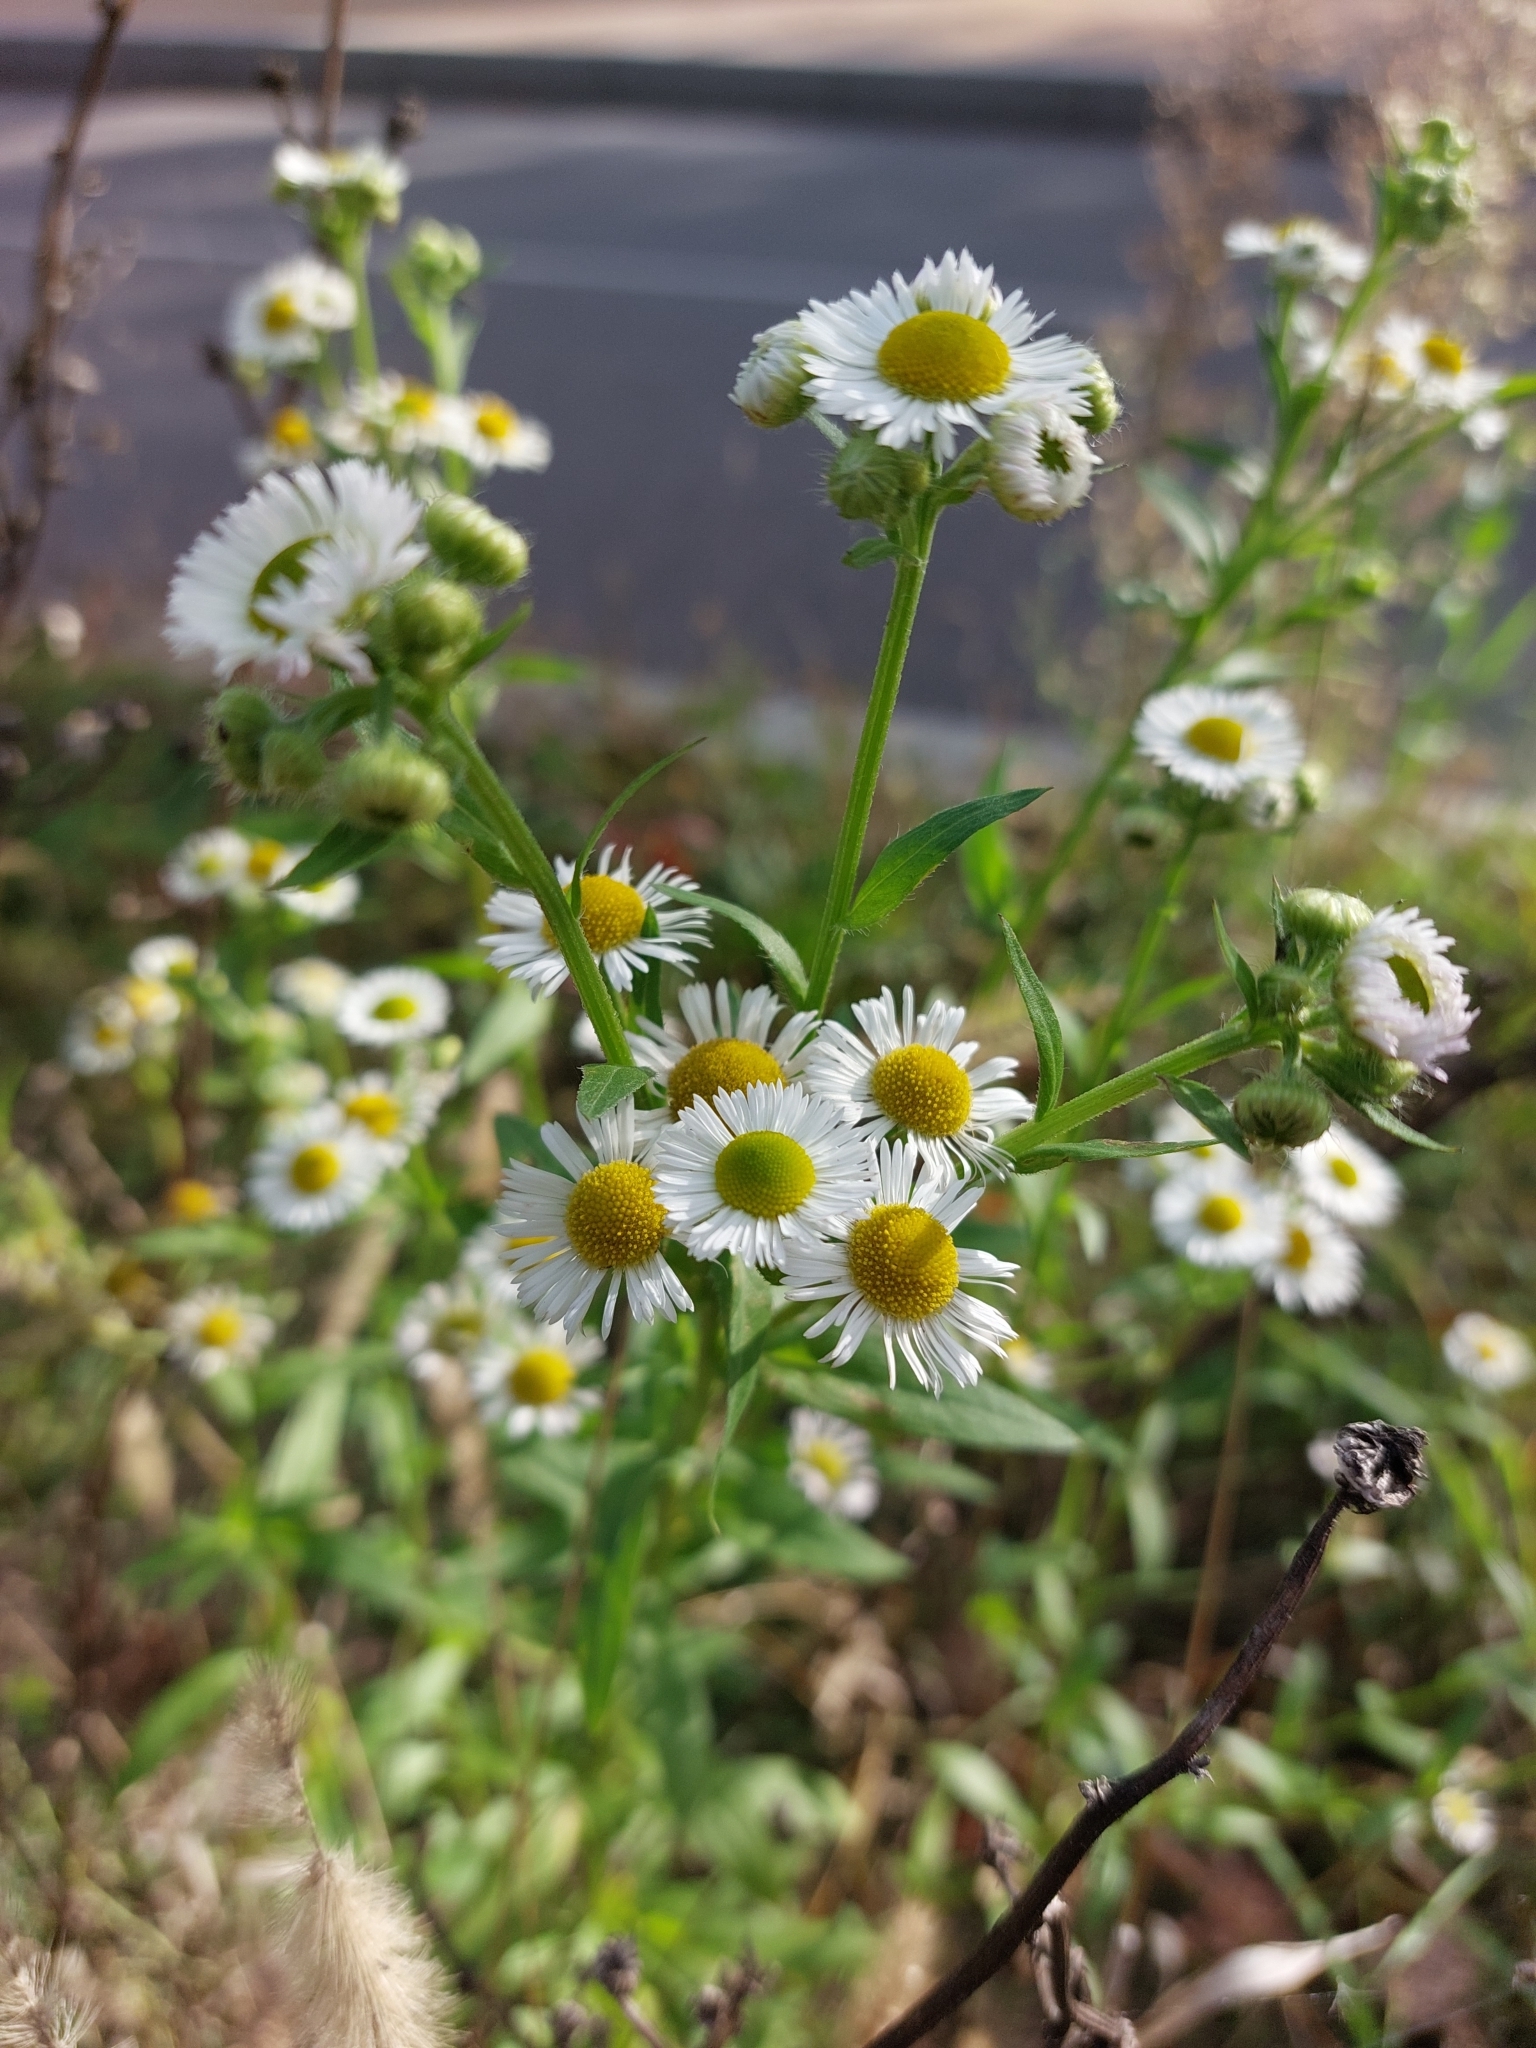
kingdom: Plantae
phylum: Tracheophyta
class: Magnoliopsida
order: Asterales
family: Asteraceae
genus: Erigeron
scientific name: Erigeron annuus
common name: Tall fleabane
